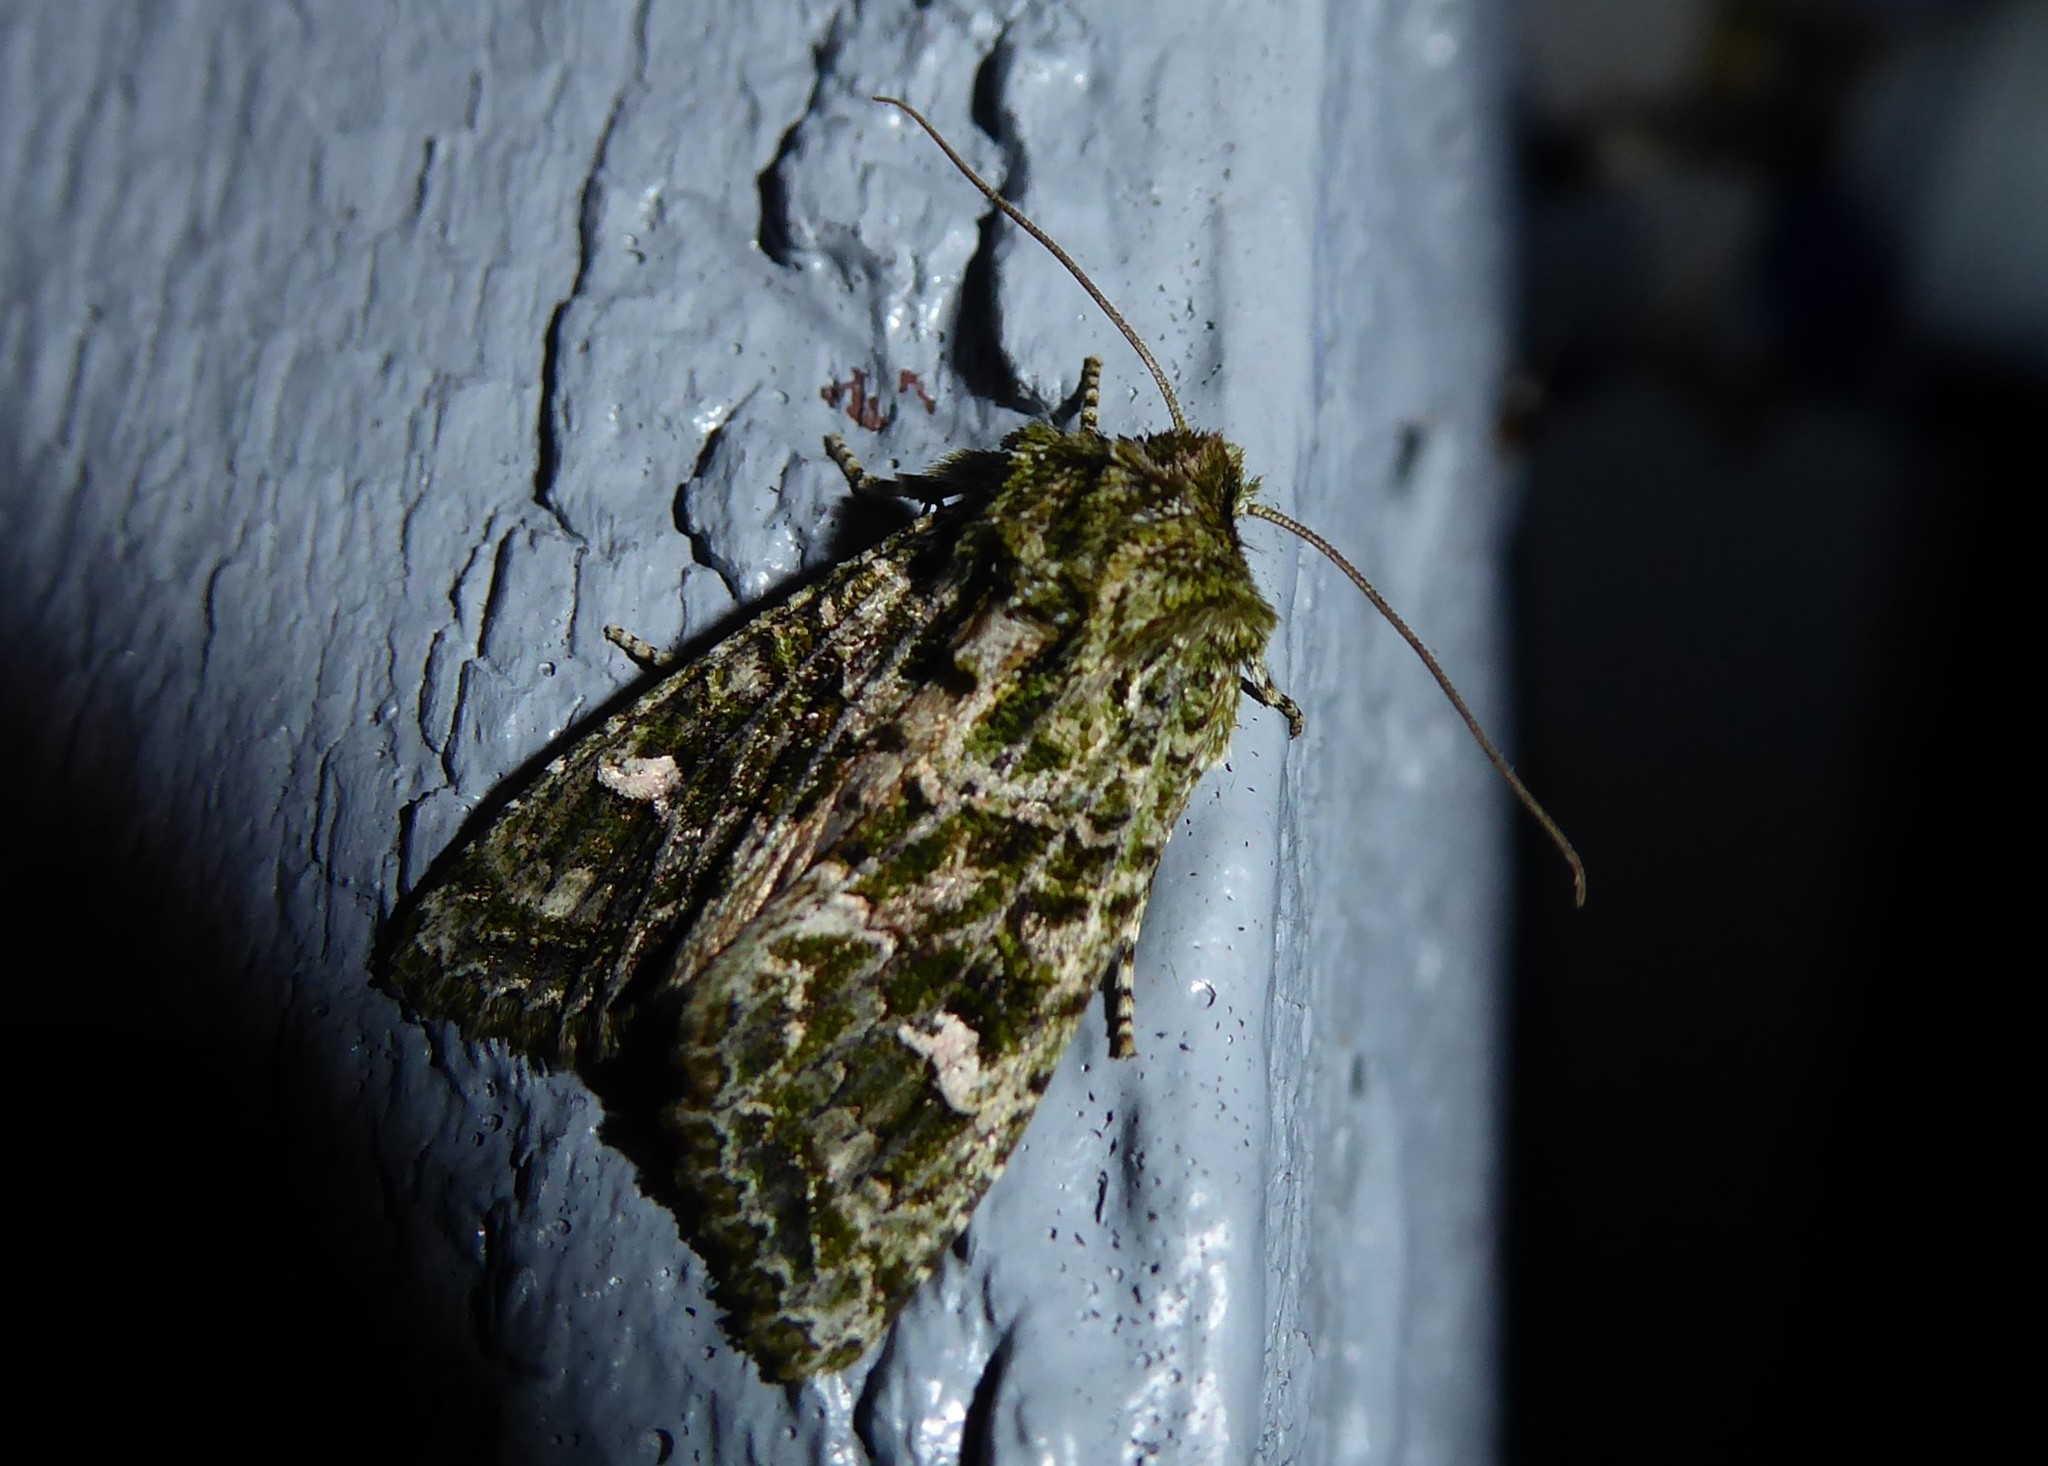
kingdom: Animalia
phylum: Arthropoda
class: Insecta
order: Lepidoptera
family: Noctuidae
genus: Ichneutica
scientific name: Ichneutica
